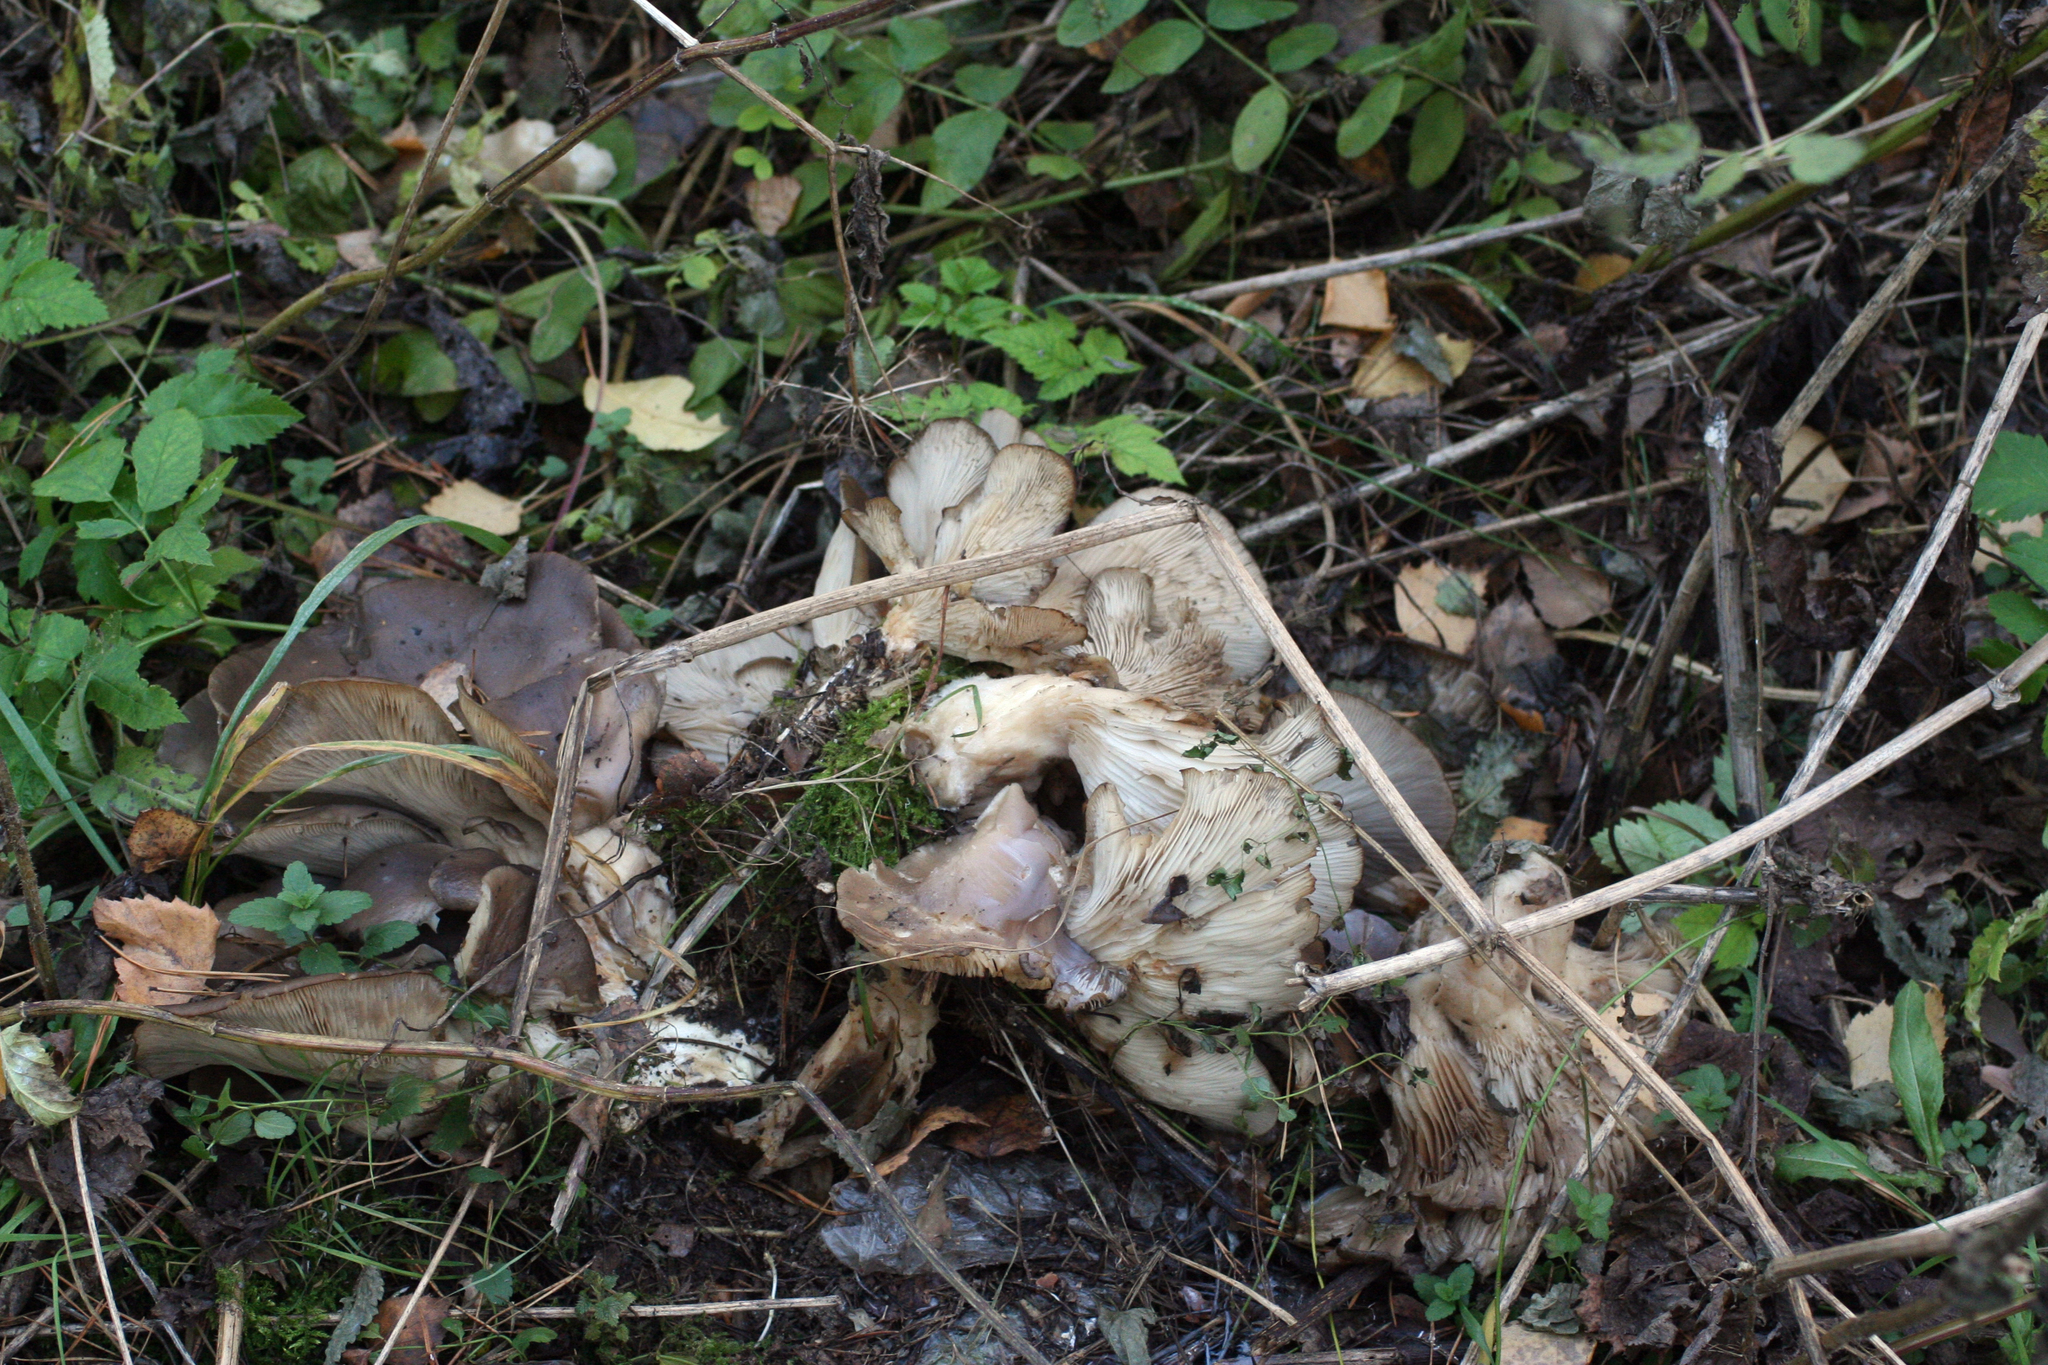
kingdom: Fungi
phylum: Basidiomycota
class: Agaricomycetes
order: Agaricales
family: Tricholomataceae
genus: Clitocybe
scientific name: Clitocybe nebularis
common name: Clouded agaric
